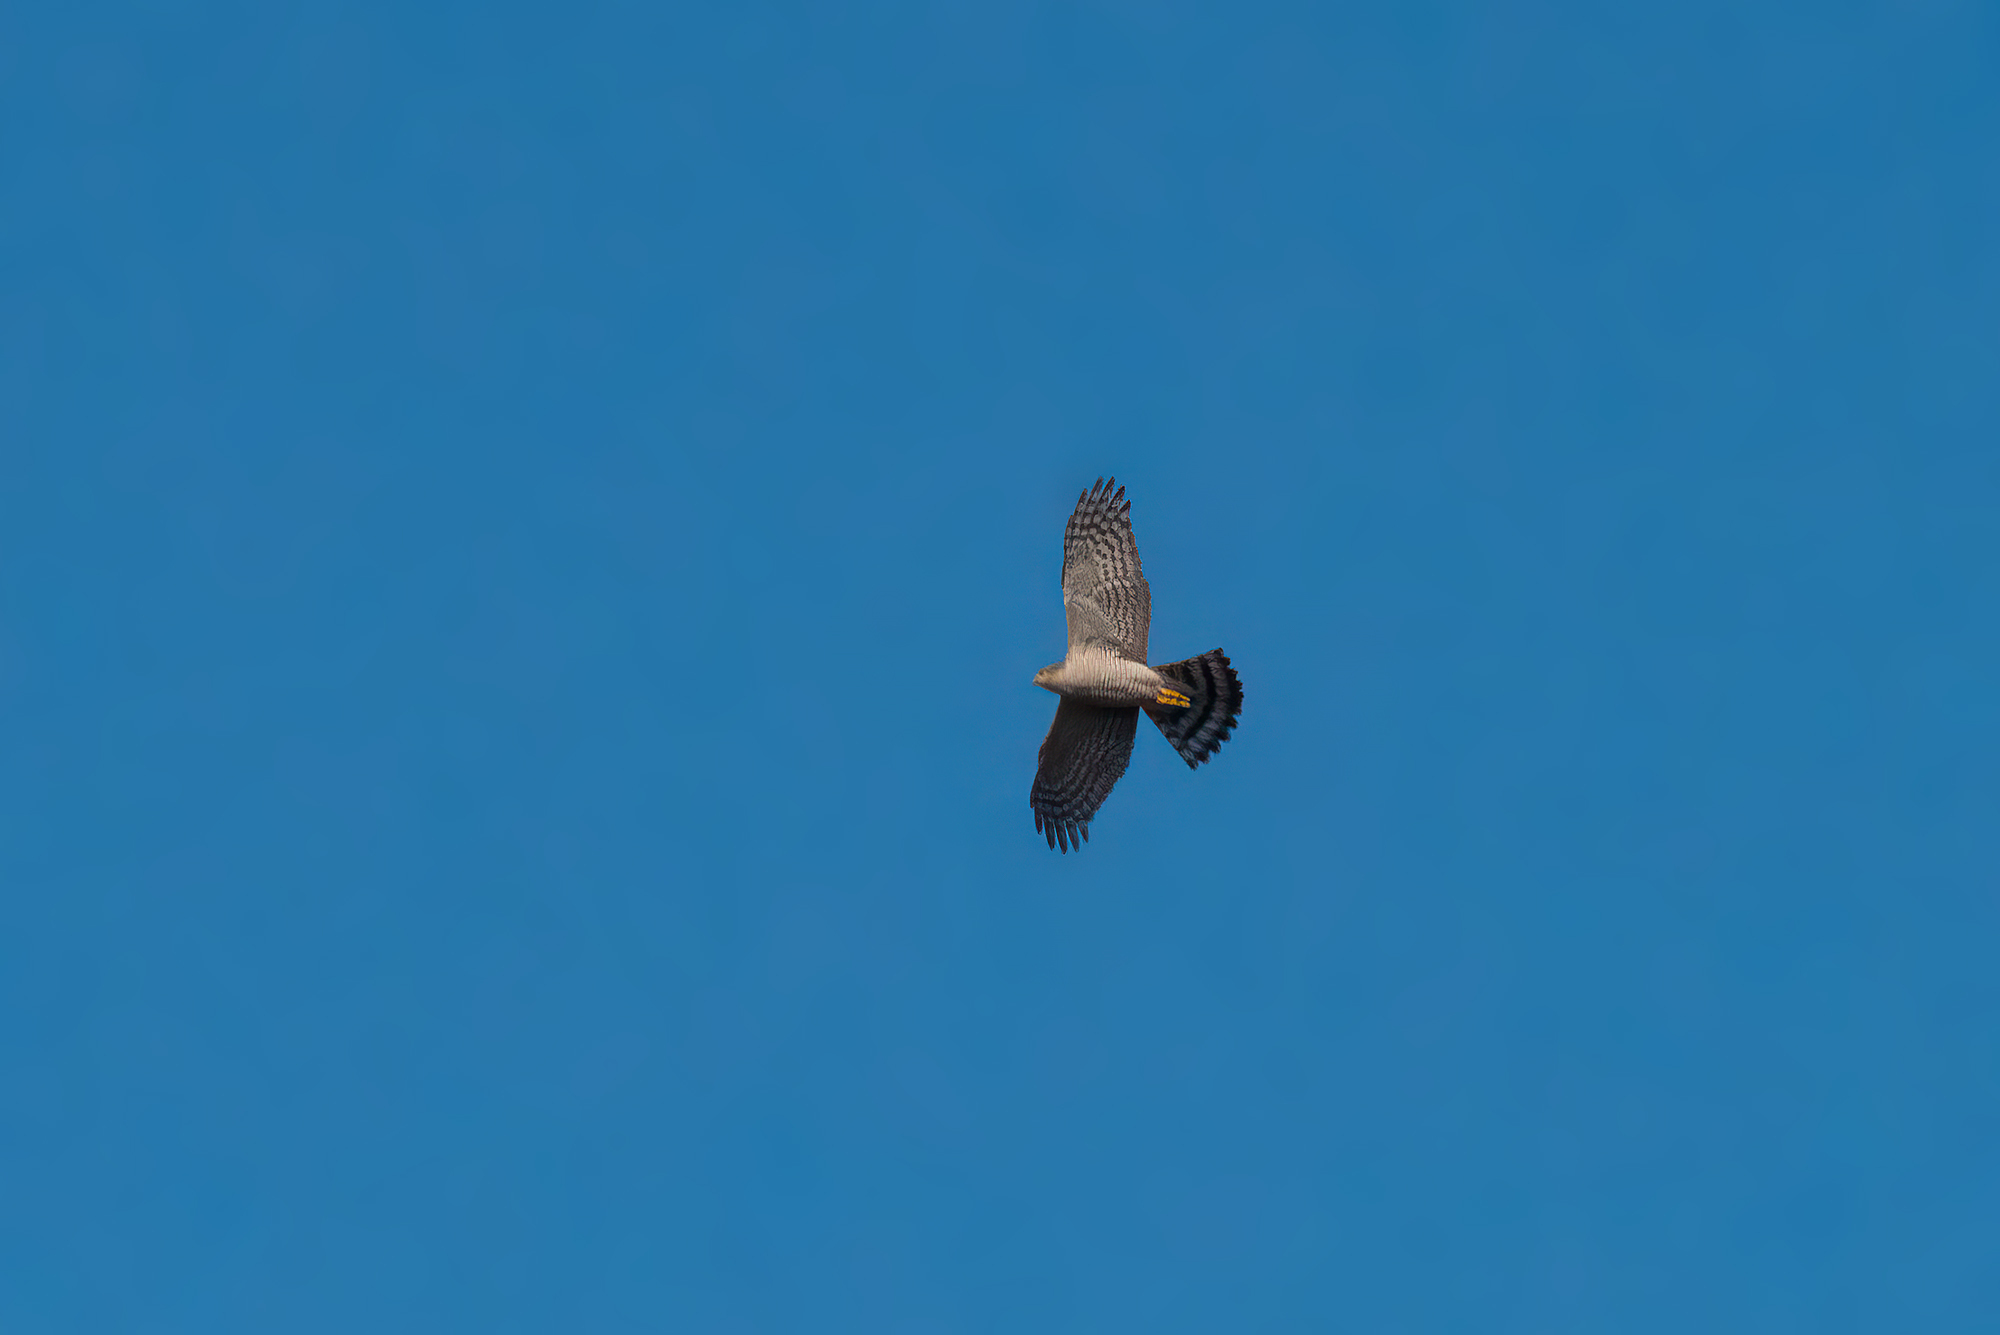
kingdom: Animalia
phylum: Chordata
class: Aves
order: Accipitriformes
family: Accipitridae
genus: Accipiter
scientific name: Accipiter nisus
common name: Eurasian sparrowhawk
